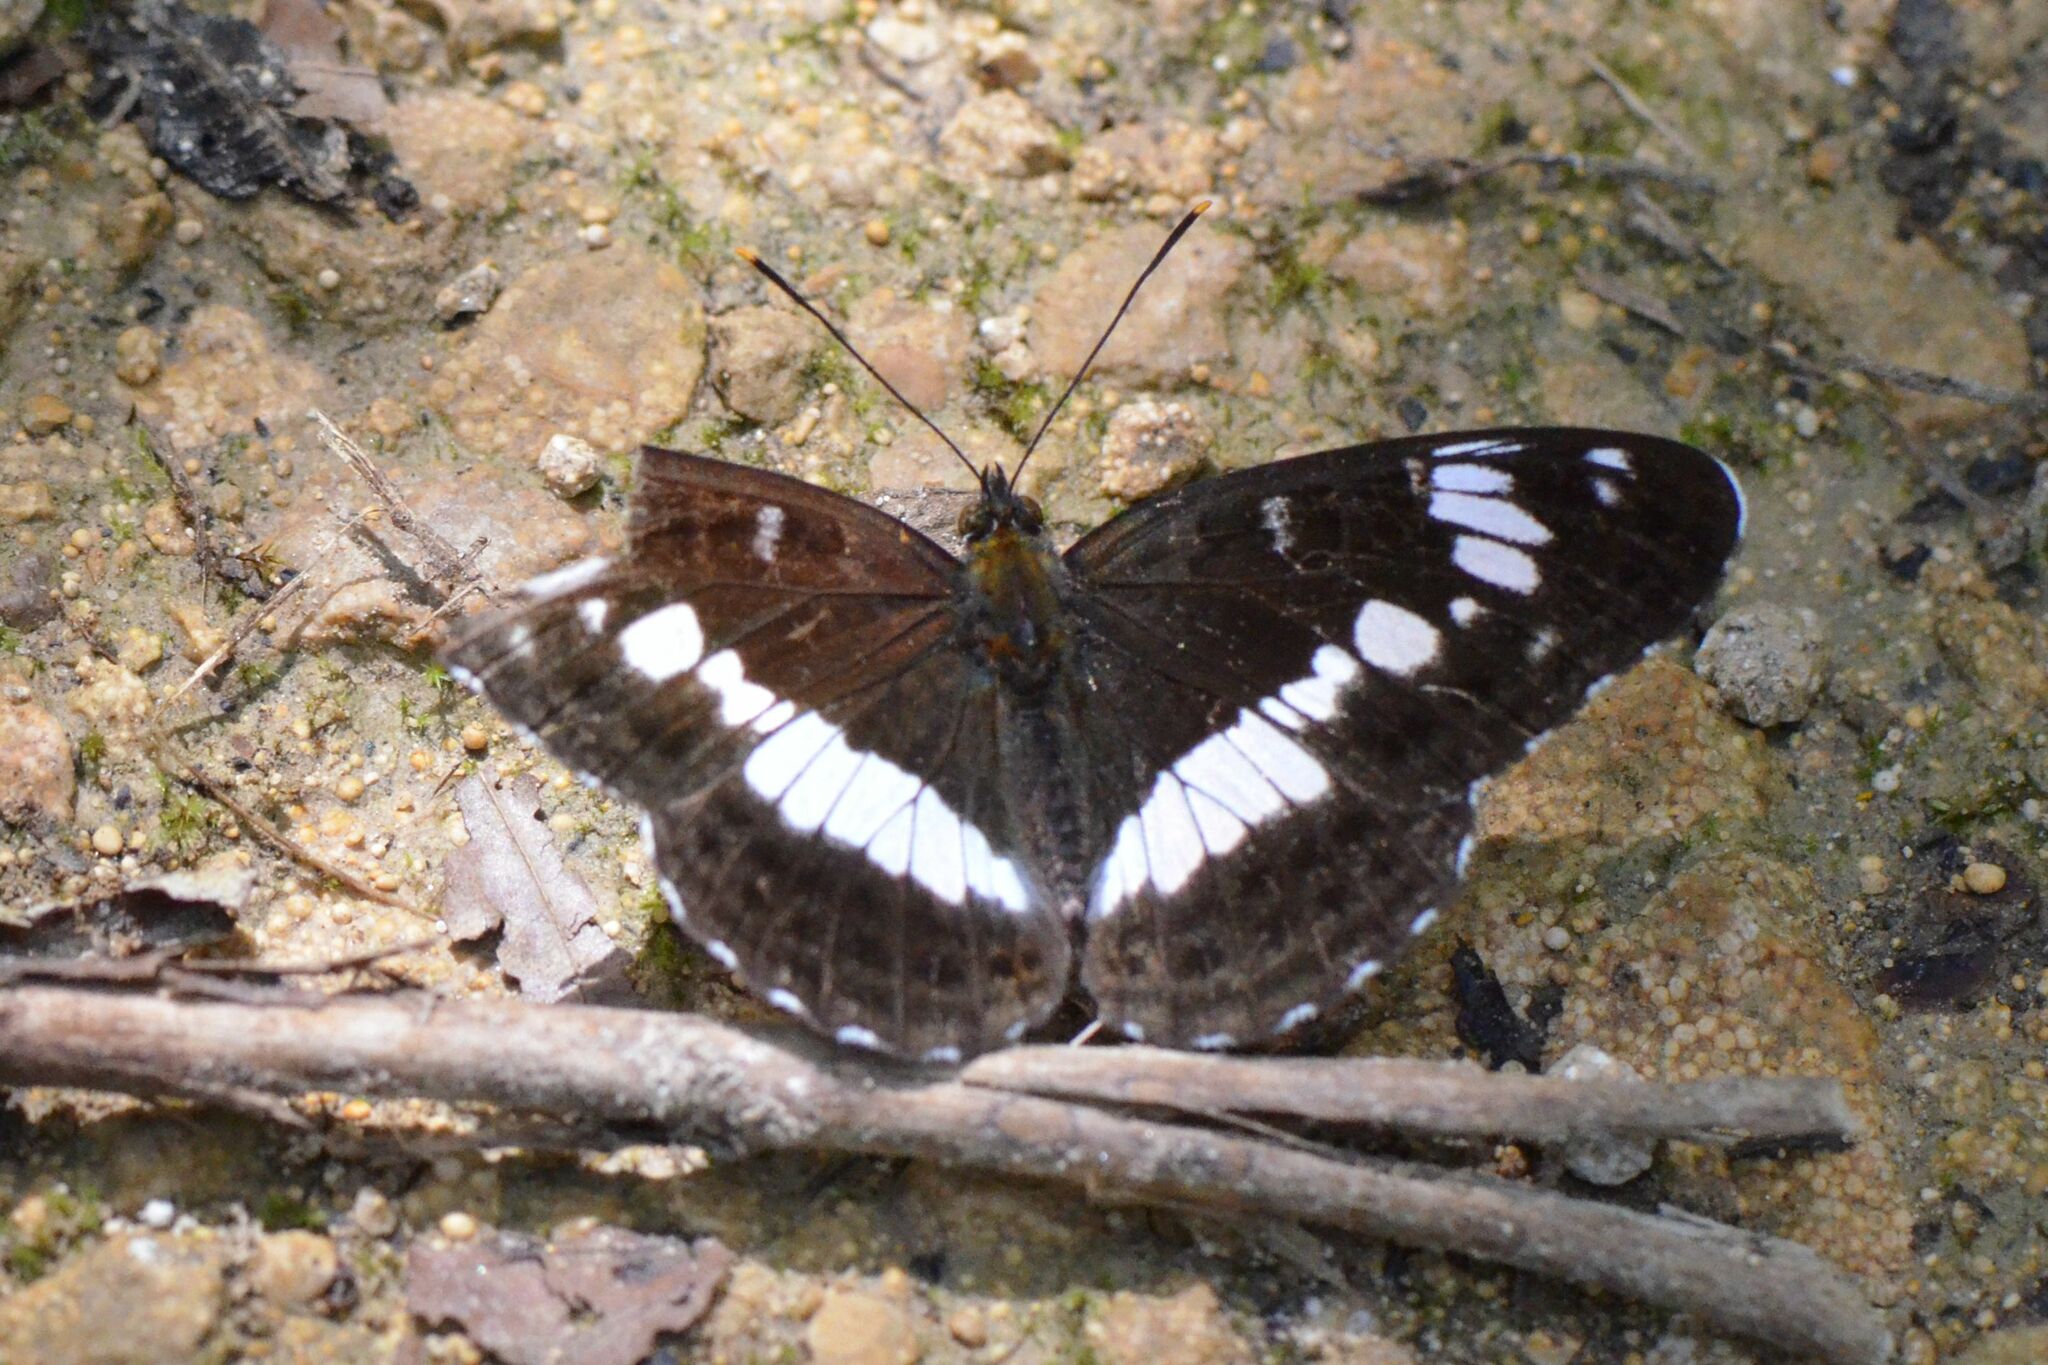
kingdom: Animalia
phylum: Arthropoda
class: Insecta
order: Lepidoptera
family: Nymphalidae
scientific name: Nymphalidae
